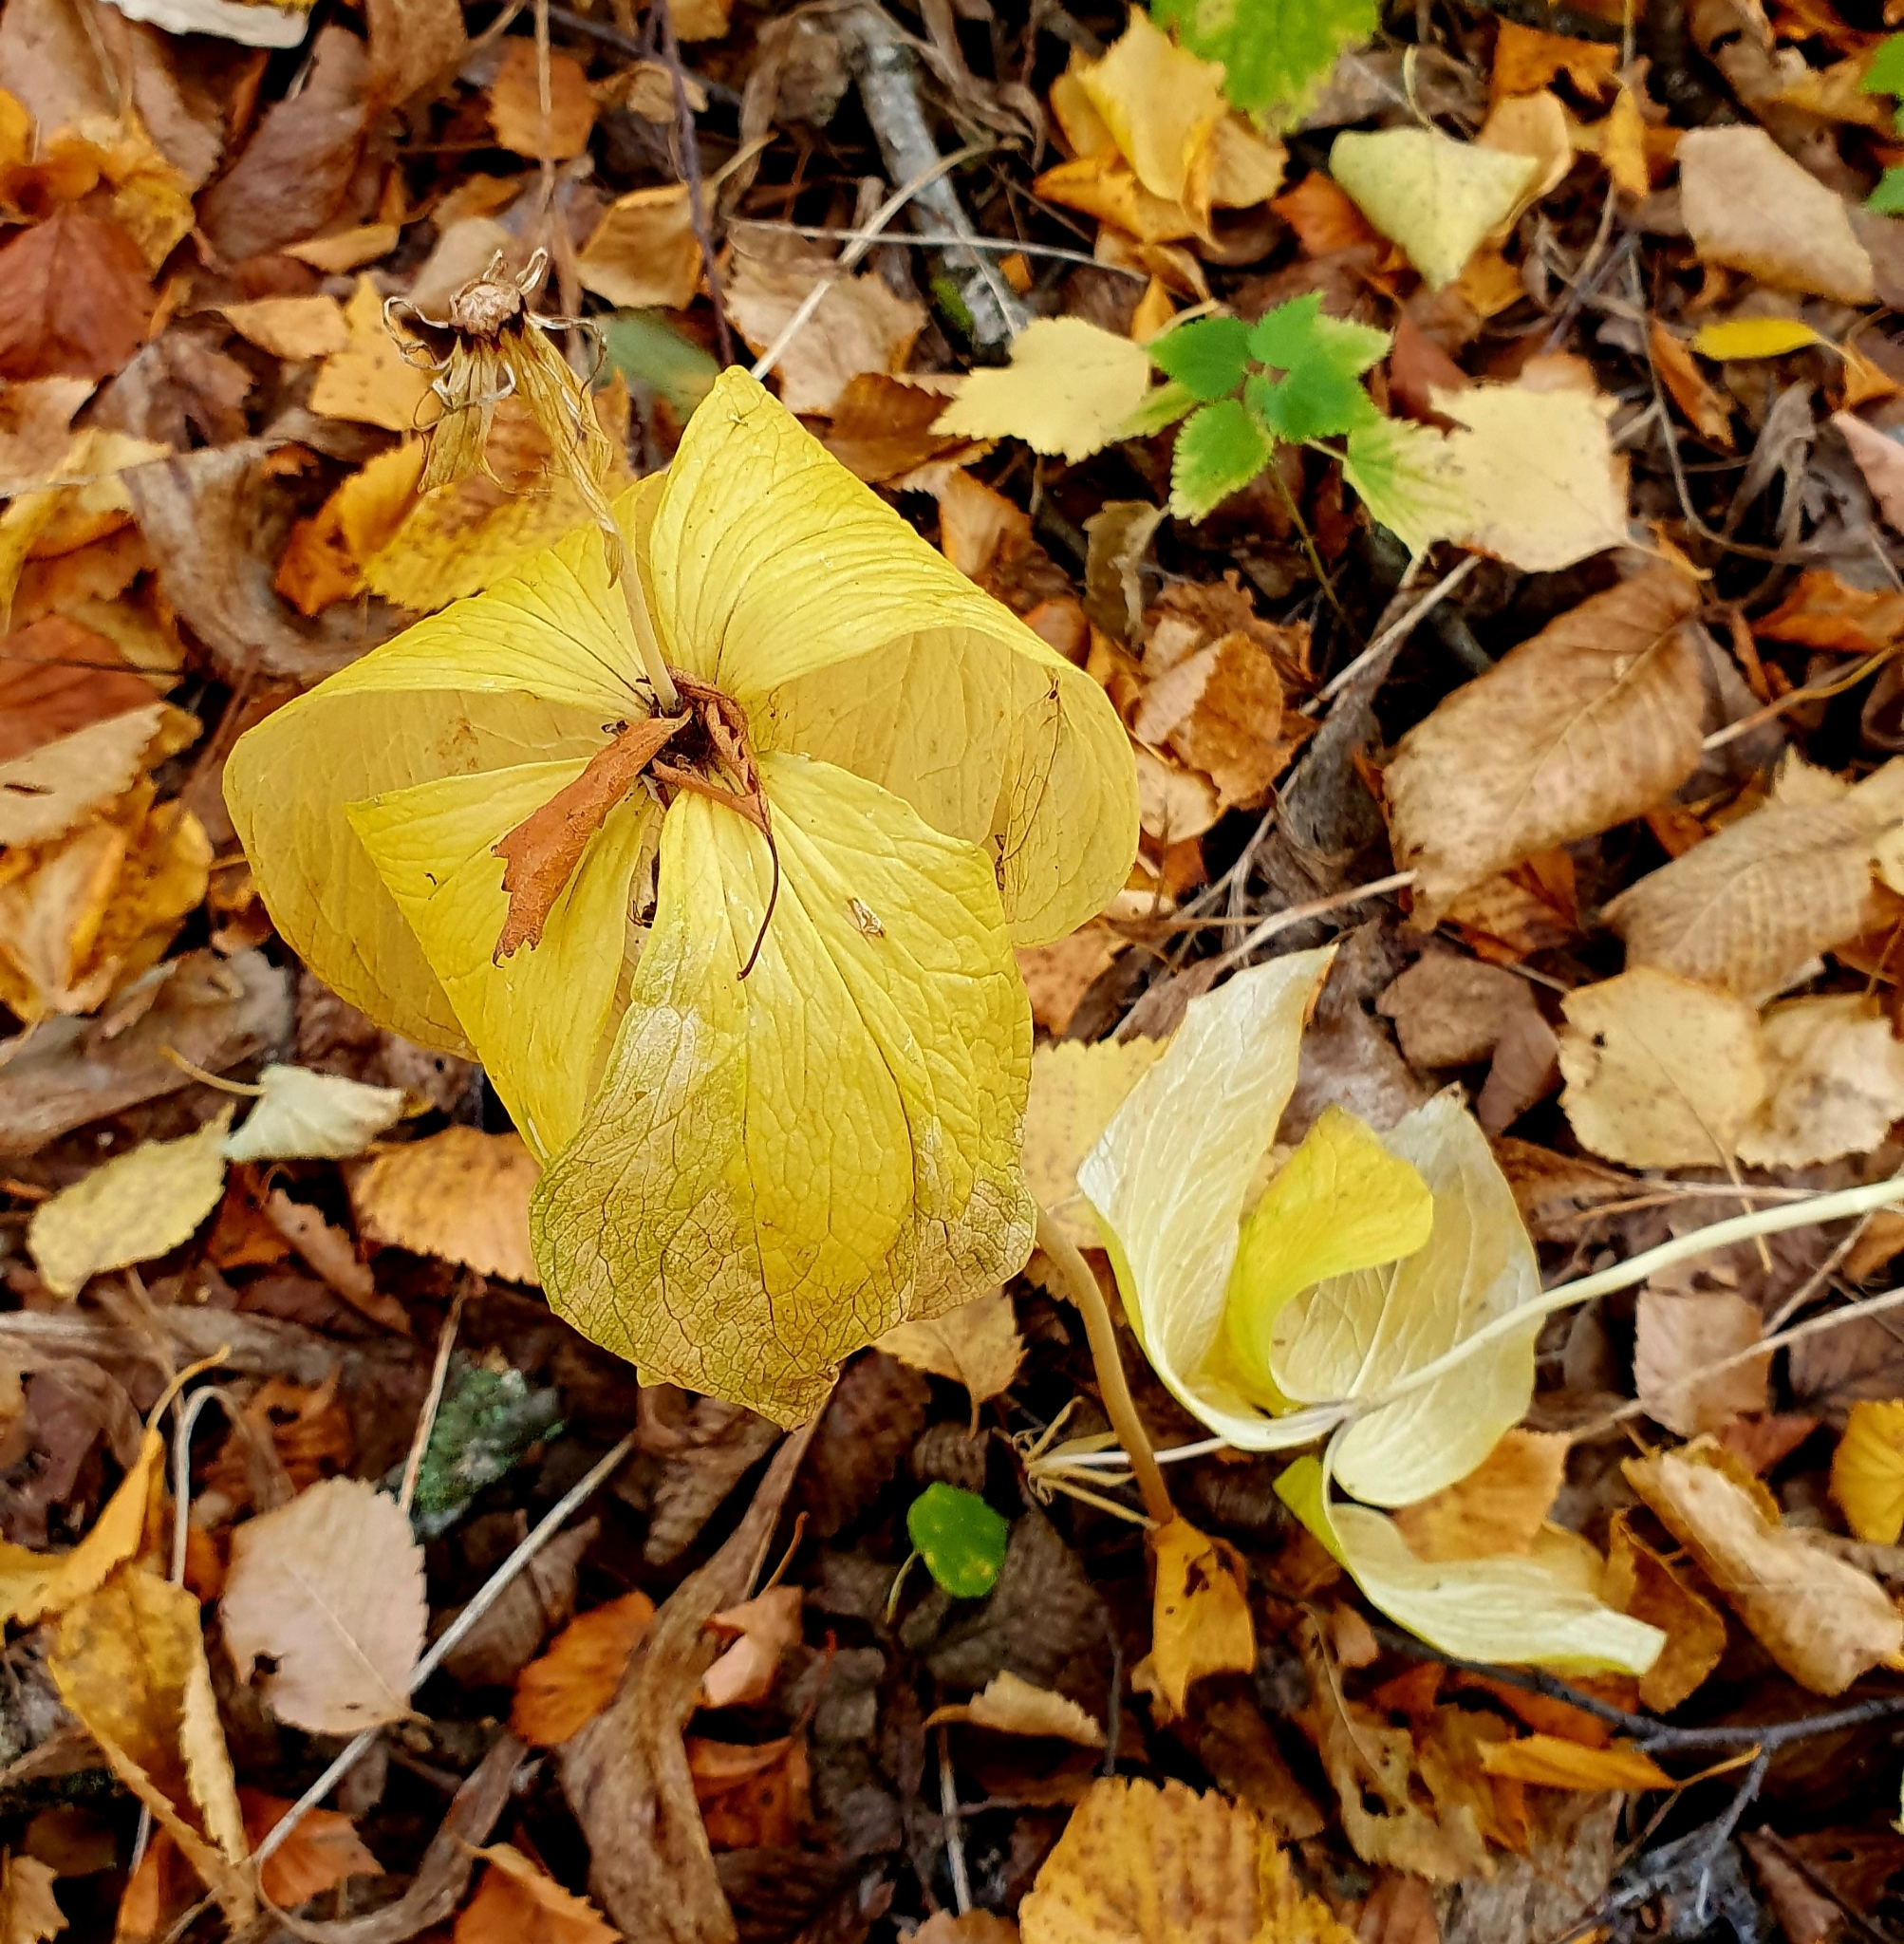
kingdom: Plantae
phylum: Tracheophyta
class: Liliopsida
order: Liliales
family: Melanthiaceae
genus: Paris
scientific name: Paris quadrifolia
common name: Herb-paris
